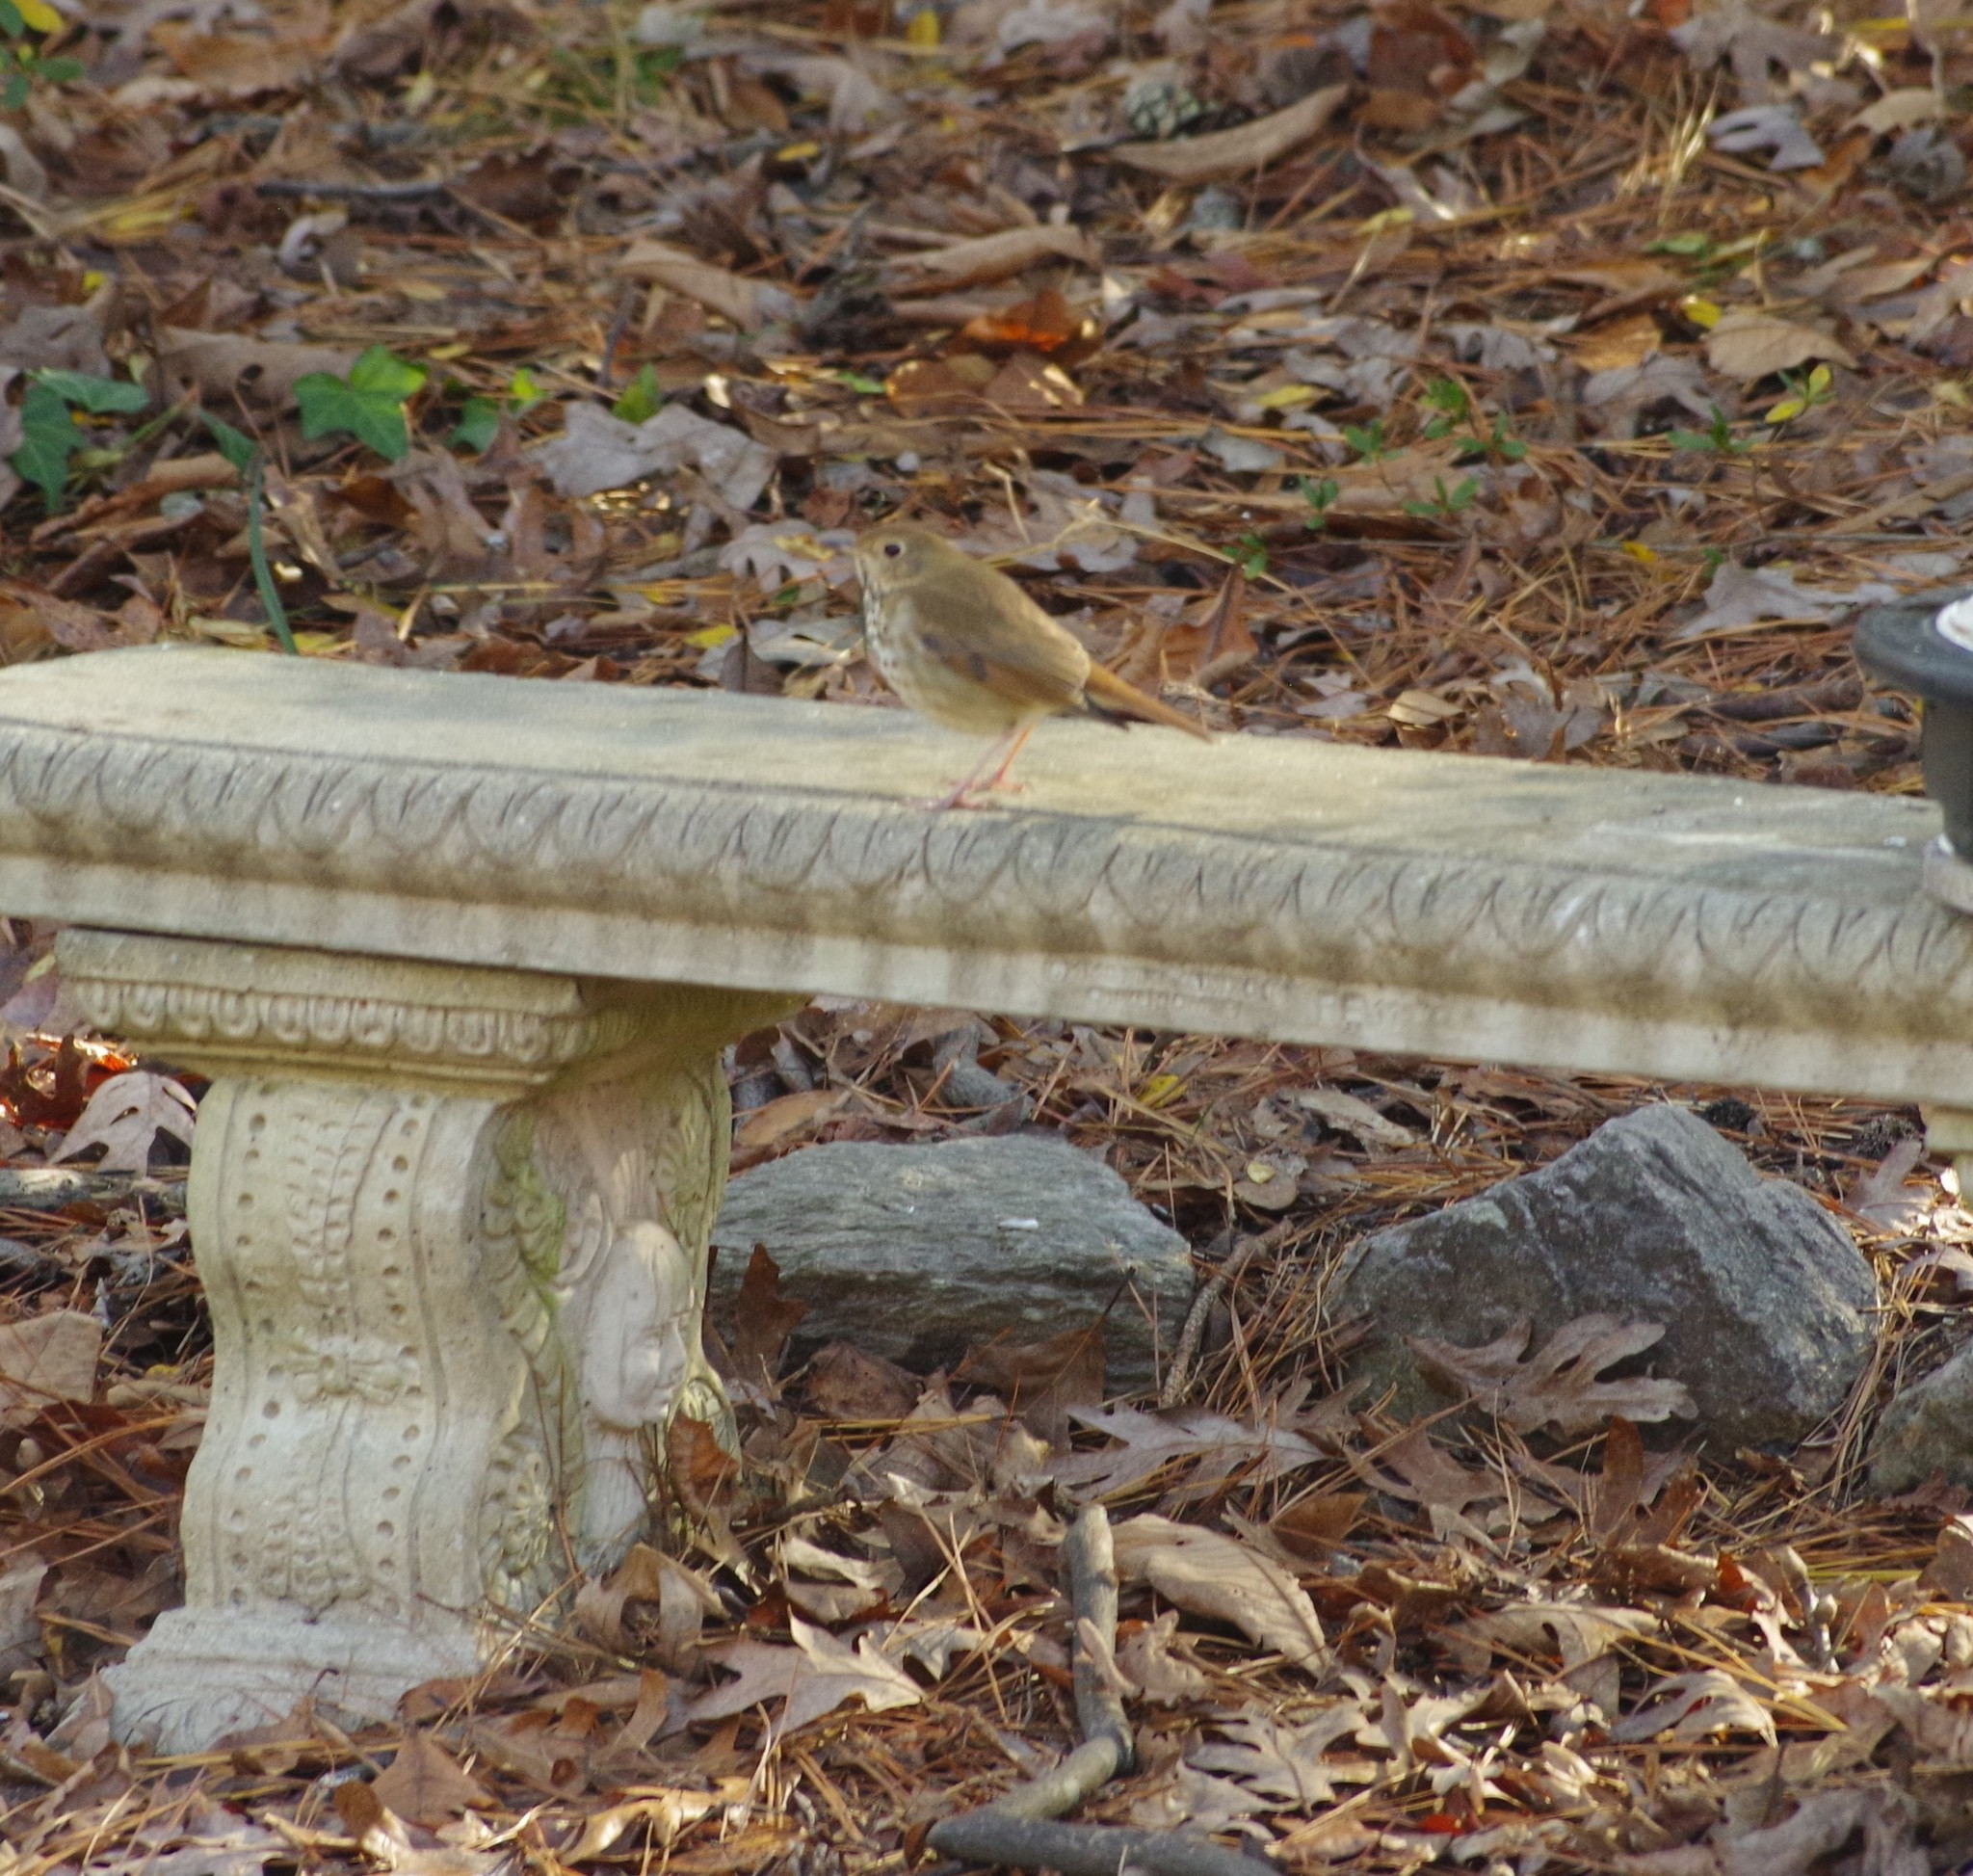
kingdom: Animalia
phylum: Chordata
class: Aves
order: Passeriformes
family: Turdidae
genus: Catharus
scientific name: Catharus guttatus
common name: Hermit thrush
